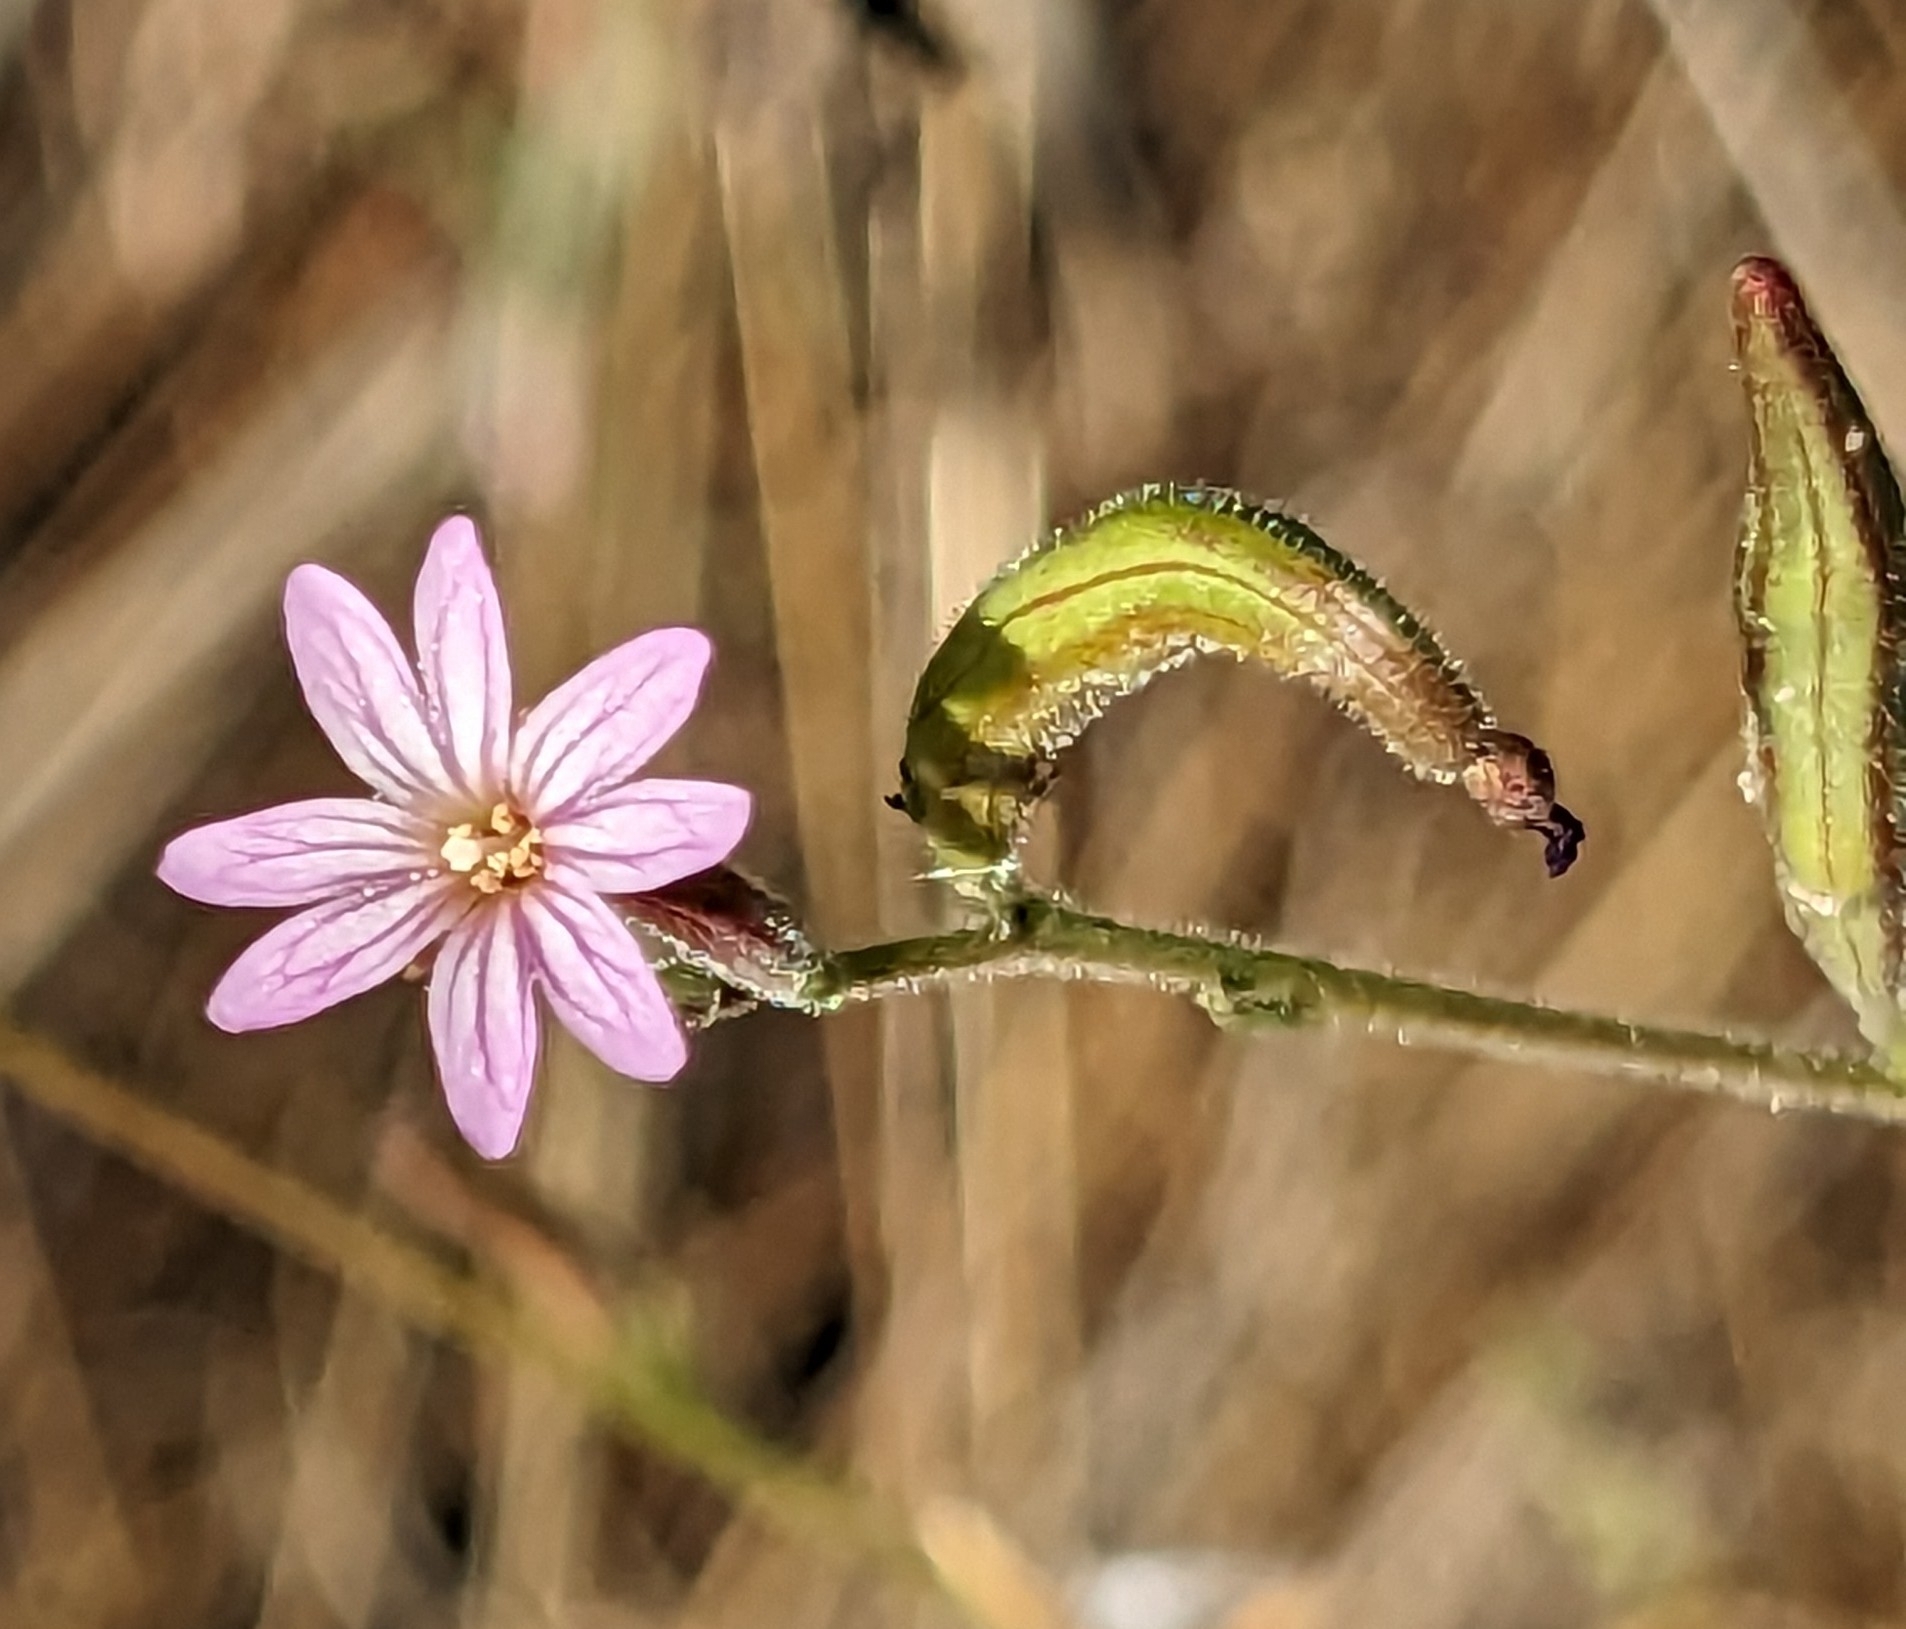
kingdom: Plantae
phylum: Tracheophyta
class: Magnoliopsida
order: Myrtales
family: Onagraceae
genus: Epilobium
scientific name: Epilobium brachycarpum
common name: Annual willowherb
